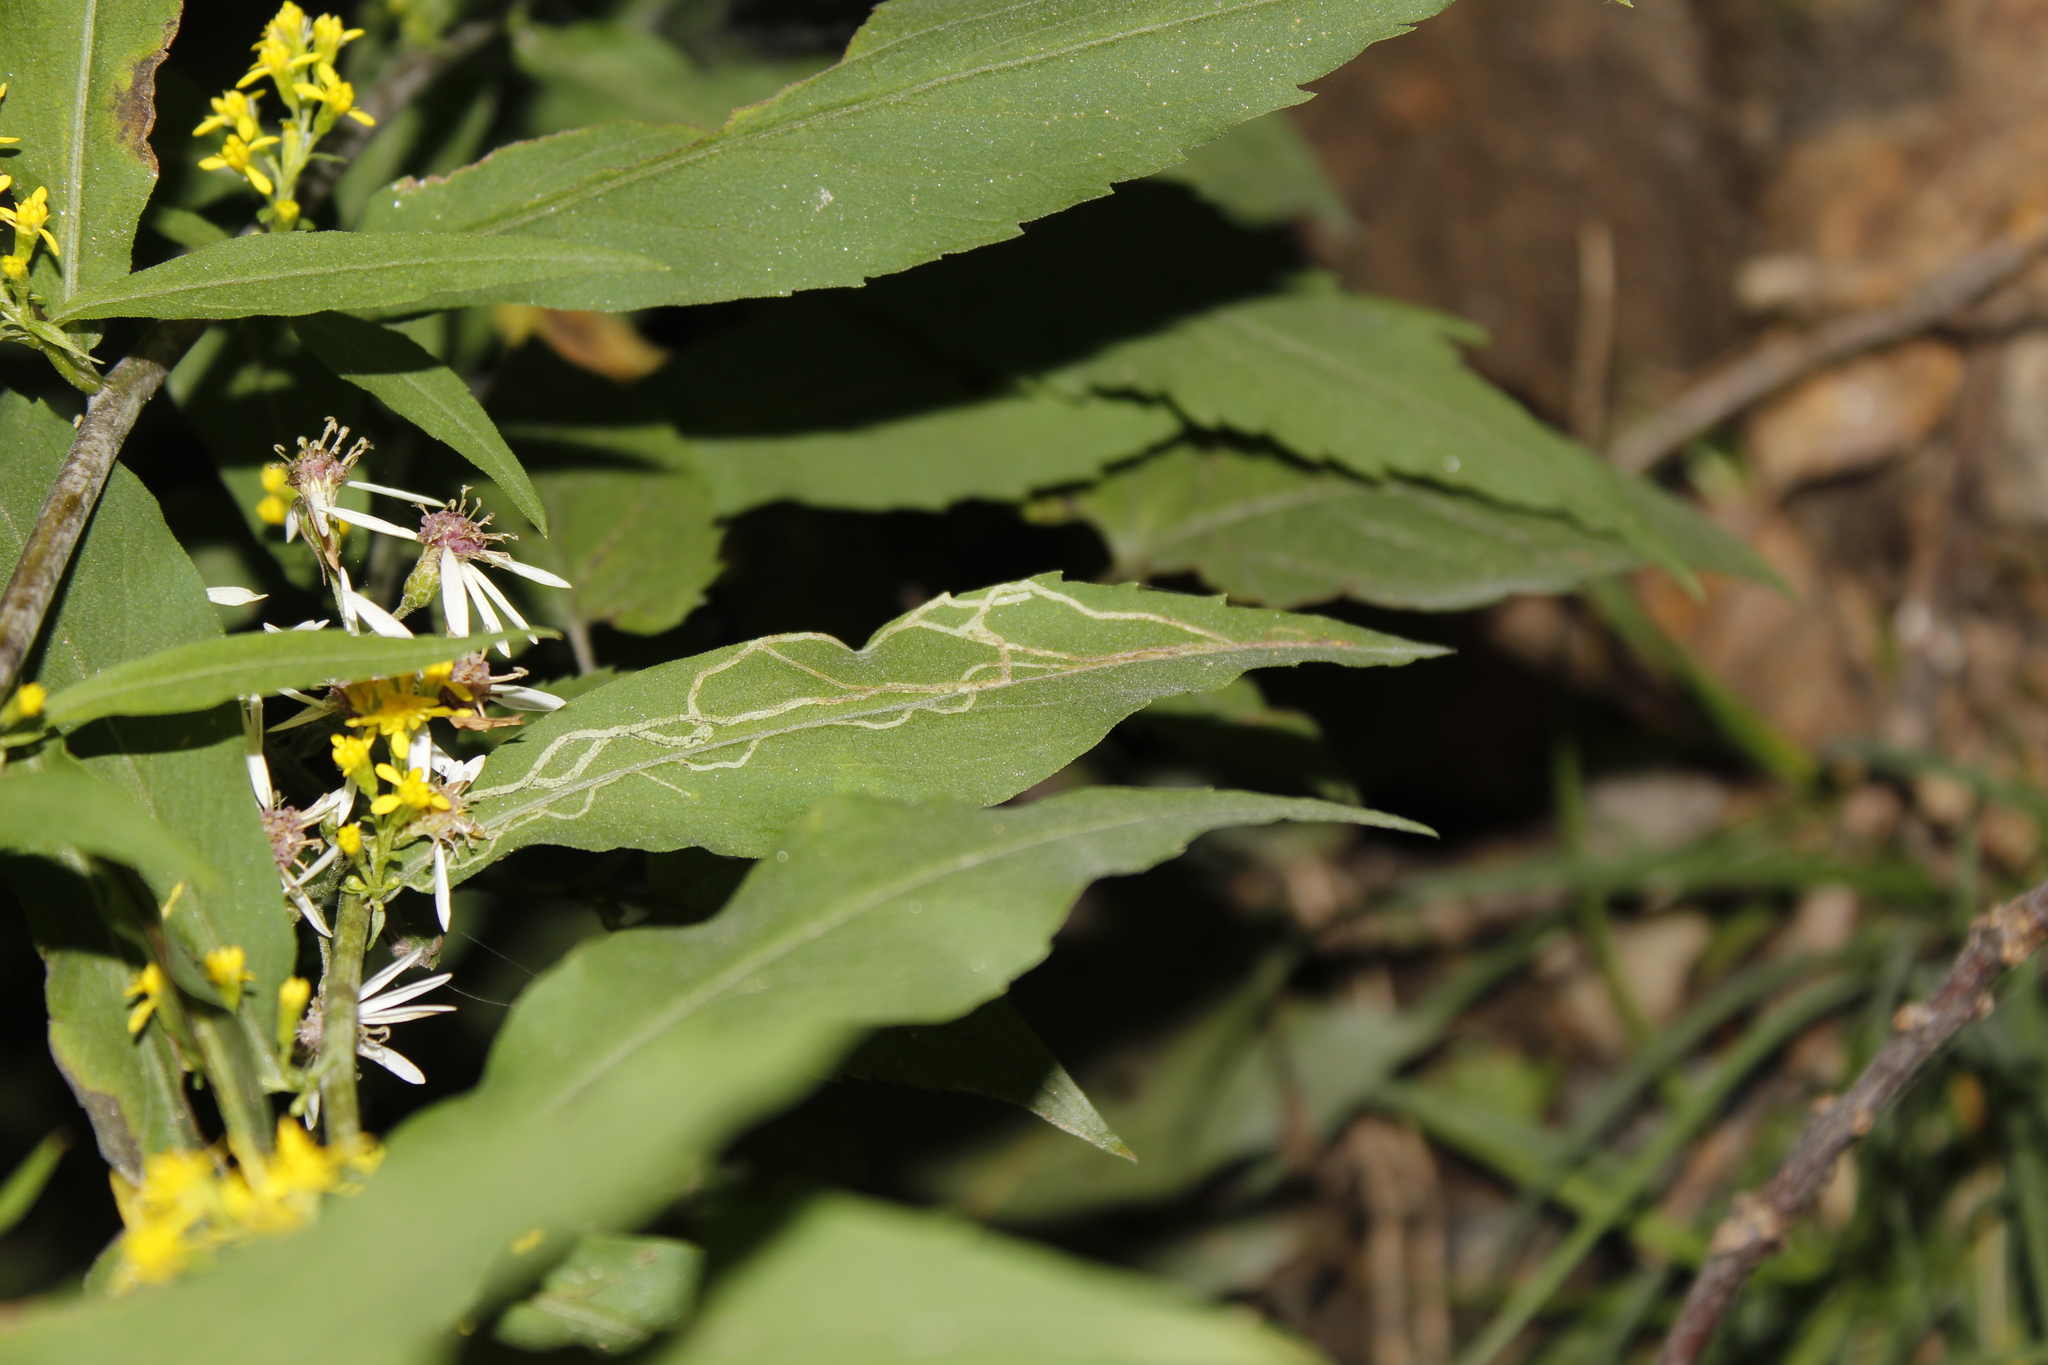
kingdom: Animalia
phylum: Arthropoda
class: Insecta
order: Diptera
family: Agromyzidae
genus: Ophiomyia
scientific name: Ophiomyia maura
